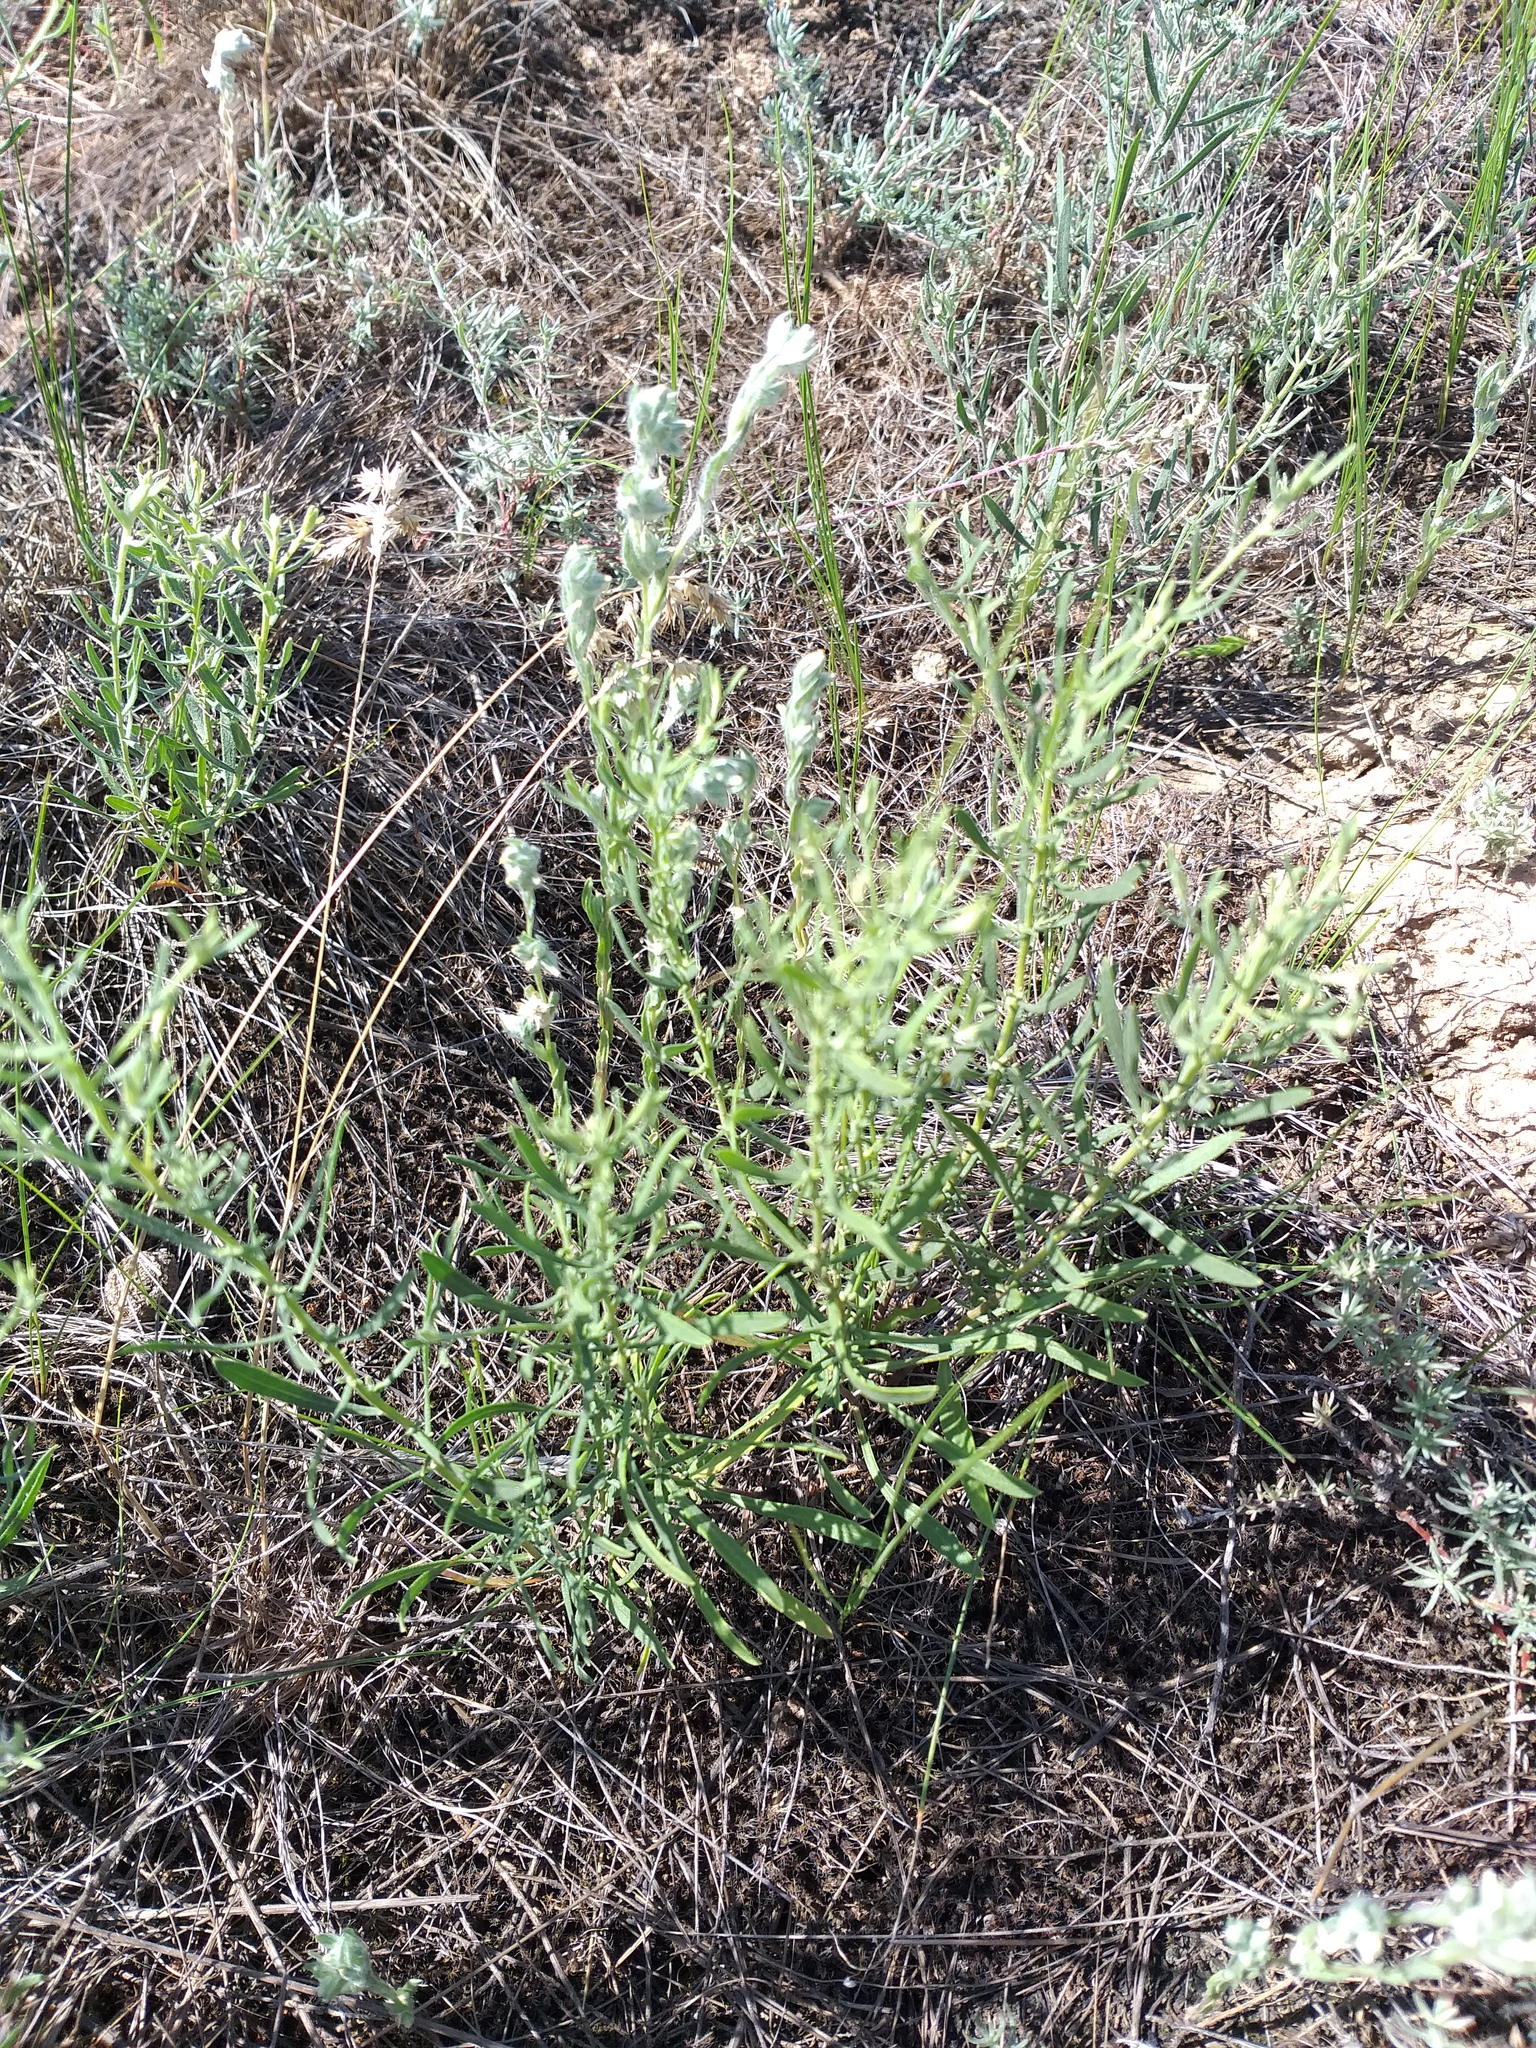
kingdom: Plantae
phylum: Tracheophyta
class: Magnoliopsida
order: Asterales
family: Asteraceae
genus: Filago
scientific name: Filago arvensis
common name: Field cudweed
